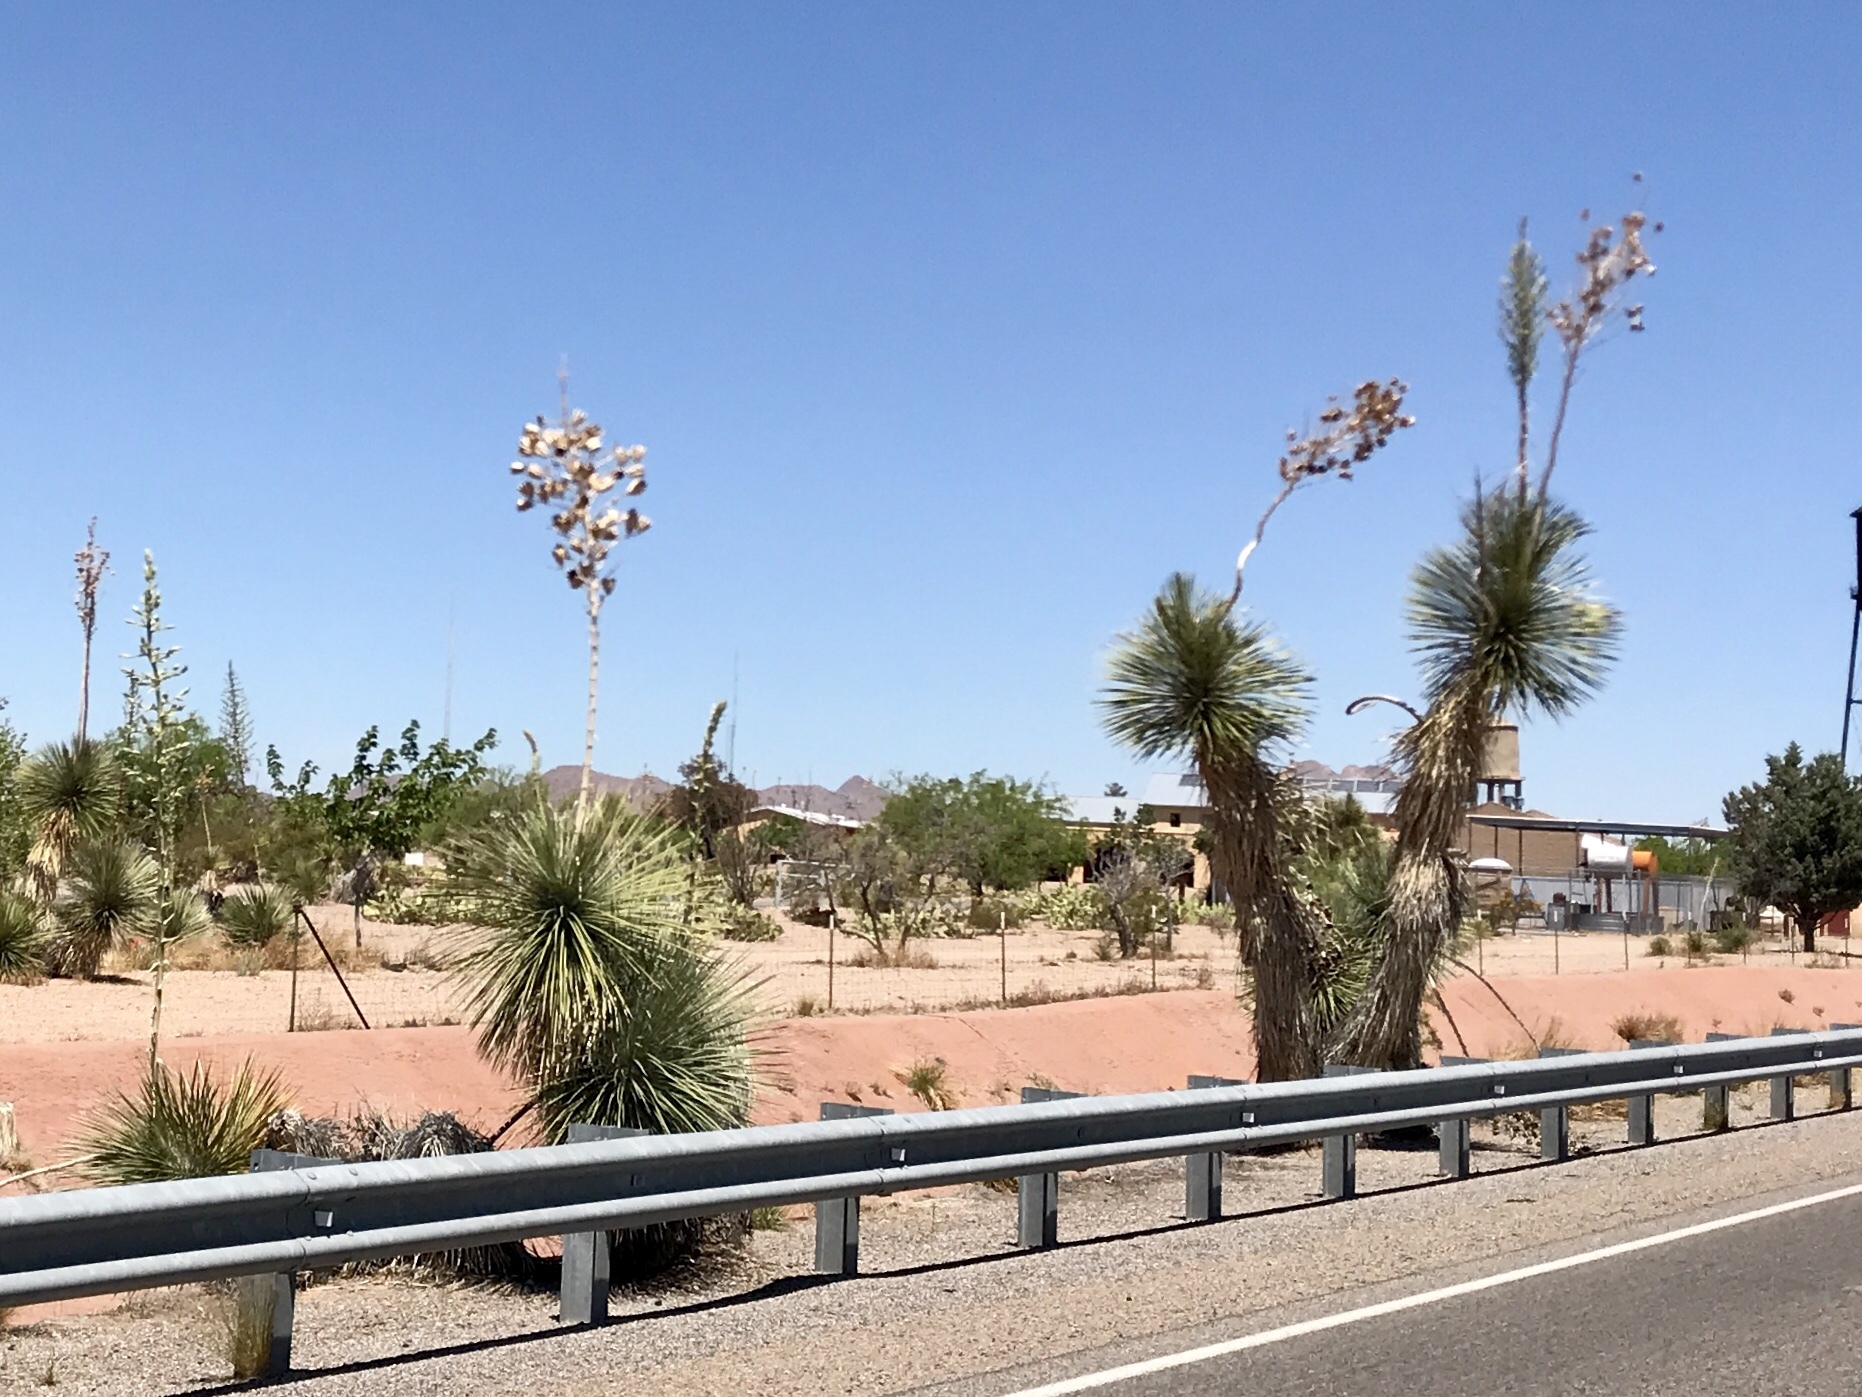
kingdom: Plantae
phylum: Tracheophyta
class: Liliopsida
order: Asparagales
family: Asparagaceae
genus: Yucca
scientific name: Yucca elata
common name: Palmella
